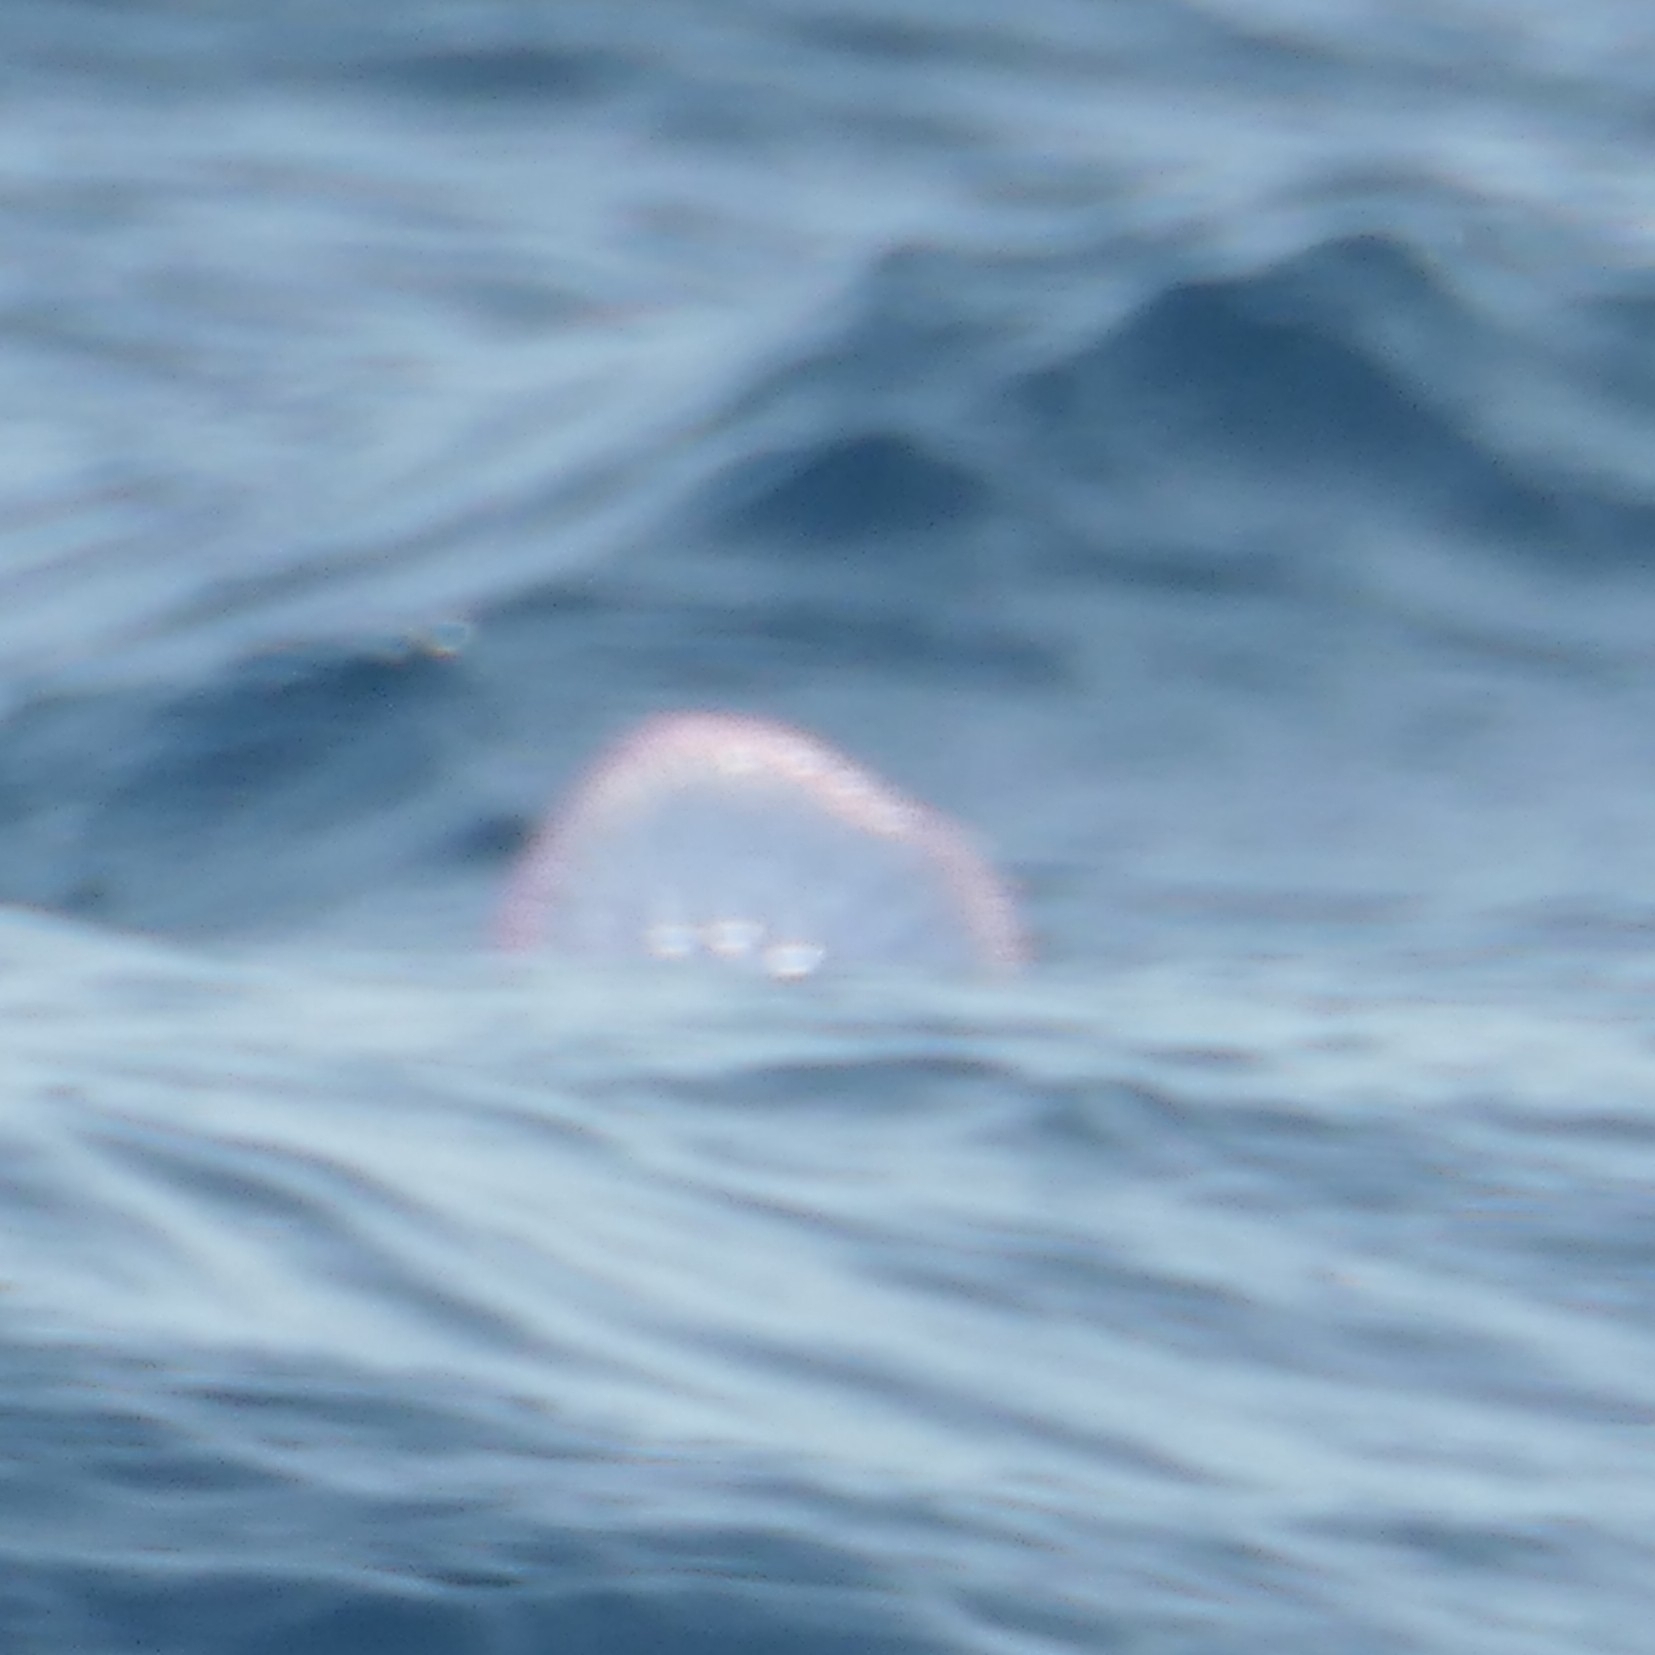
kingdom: Animalia
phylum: Cnidaria
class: Hydrozoa
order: Siphonophorae
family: Physaliidae
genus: Physalia
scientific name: Physalia physalis
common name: Portuguese man-of-war
